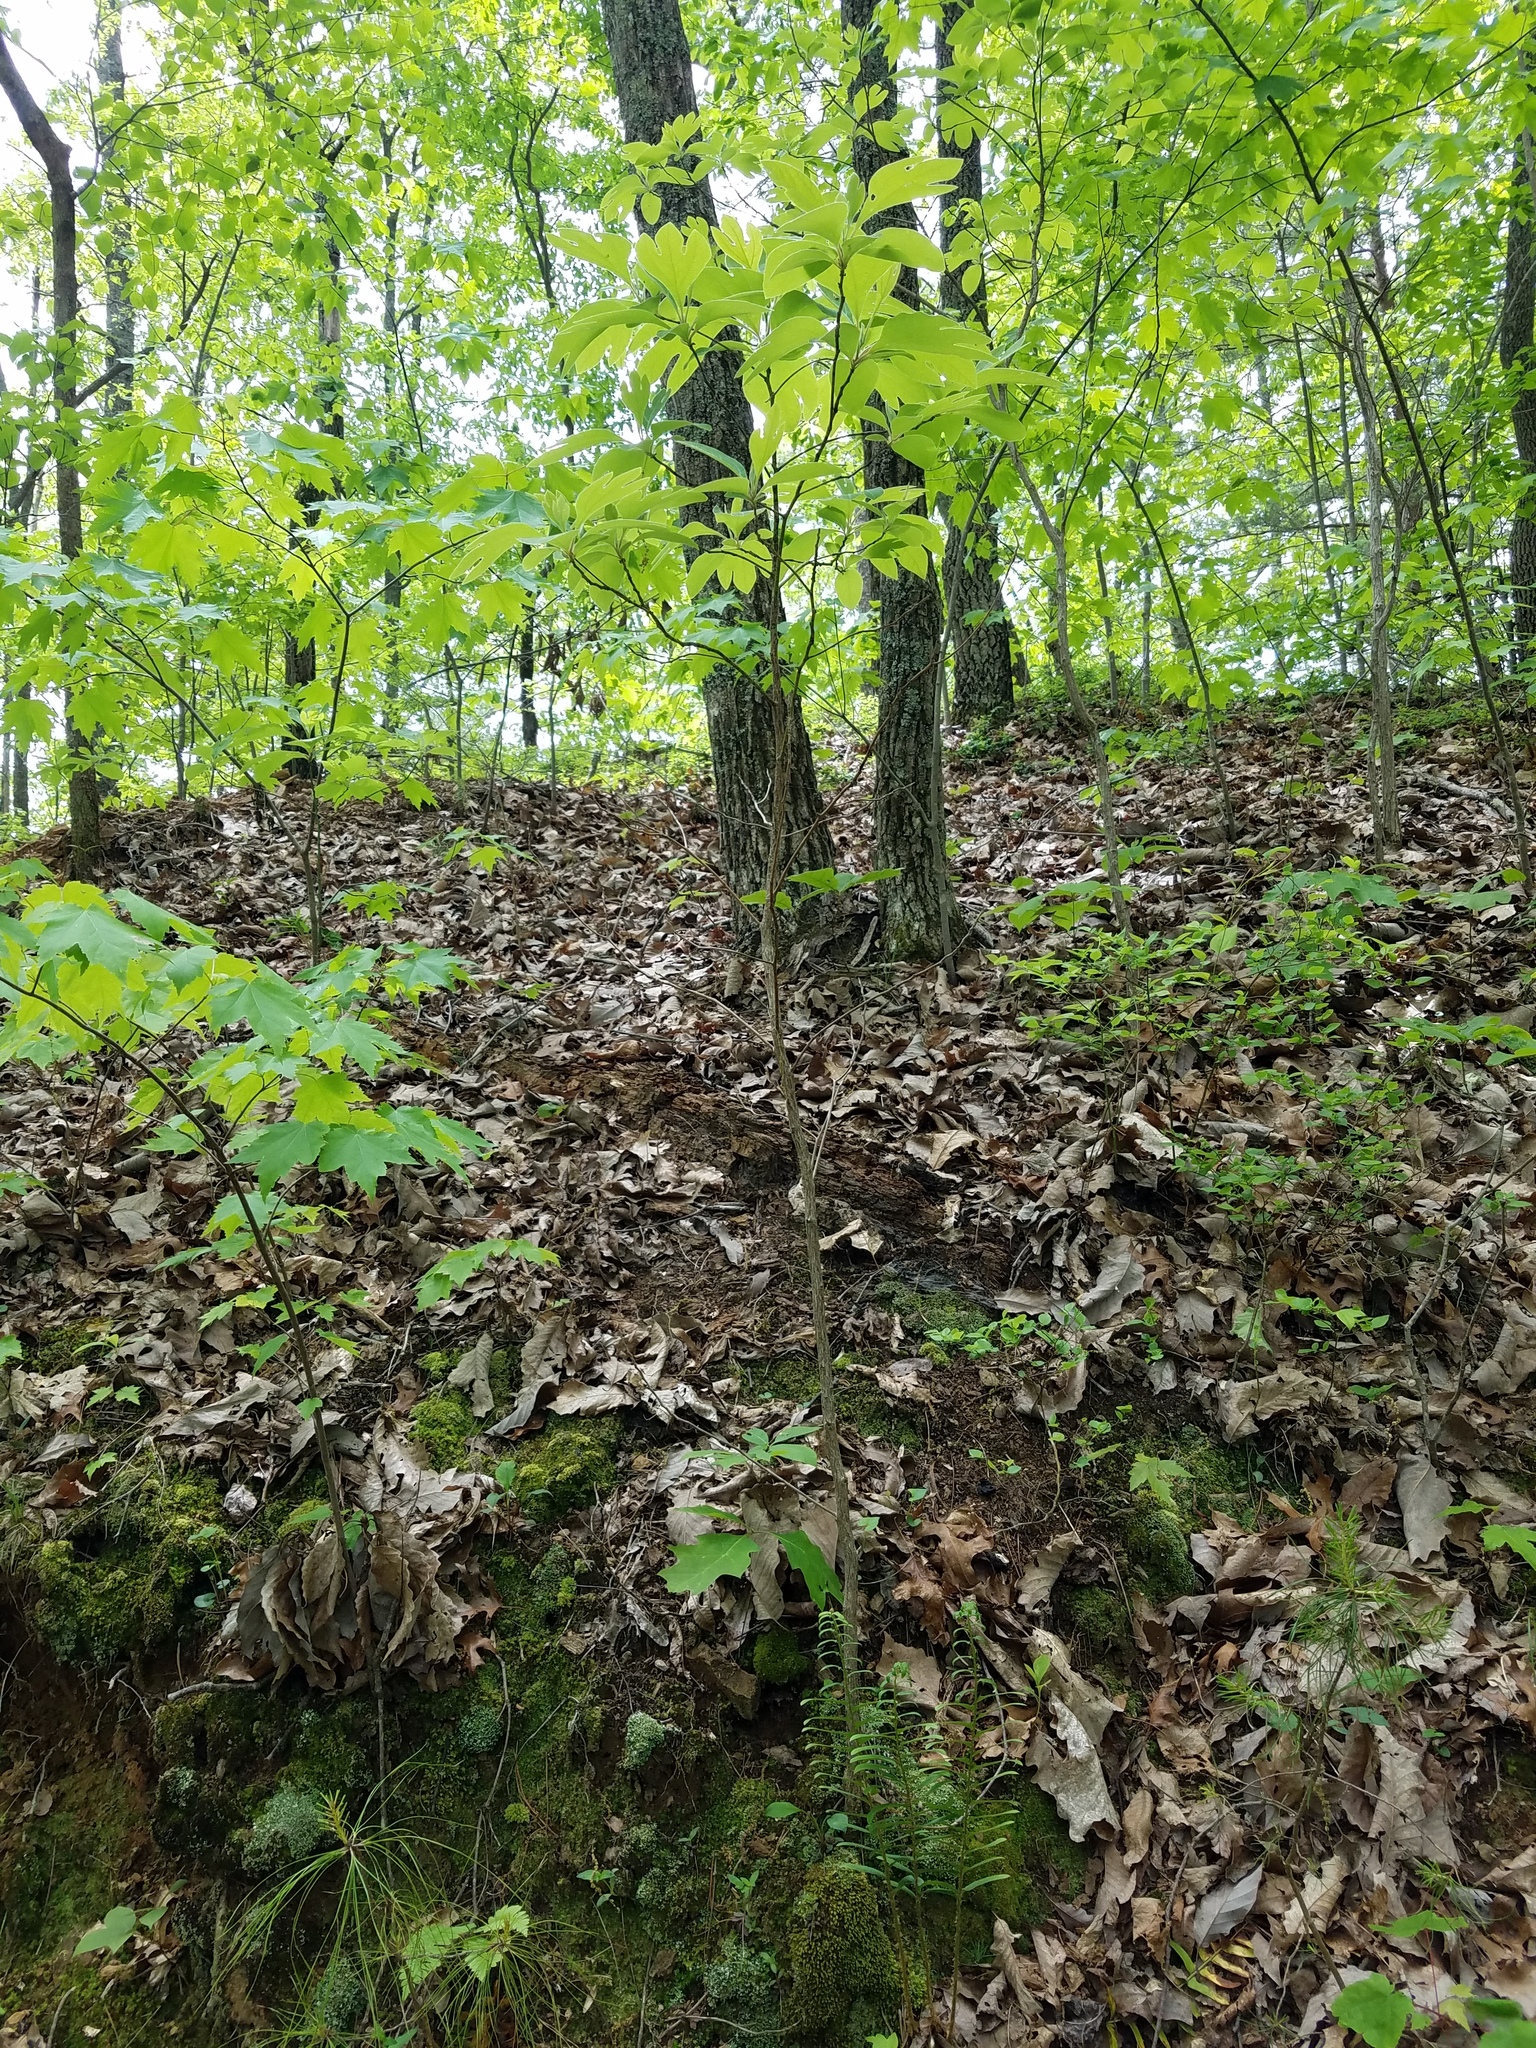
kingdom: Plantae
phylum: Tracheophyta
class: Magnoliopsida
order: Laurales
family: Lauraceae
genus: Sassafras
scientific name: Sassafras albidum
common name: Sassafras
